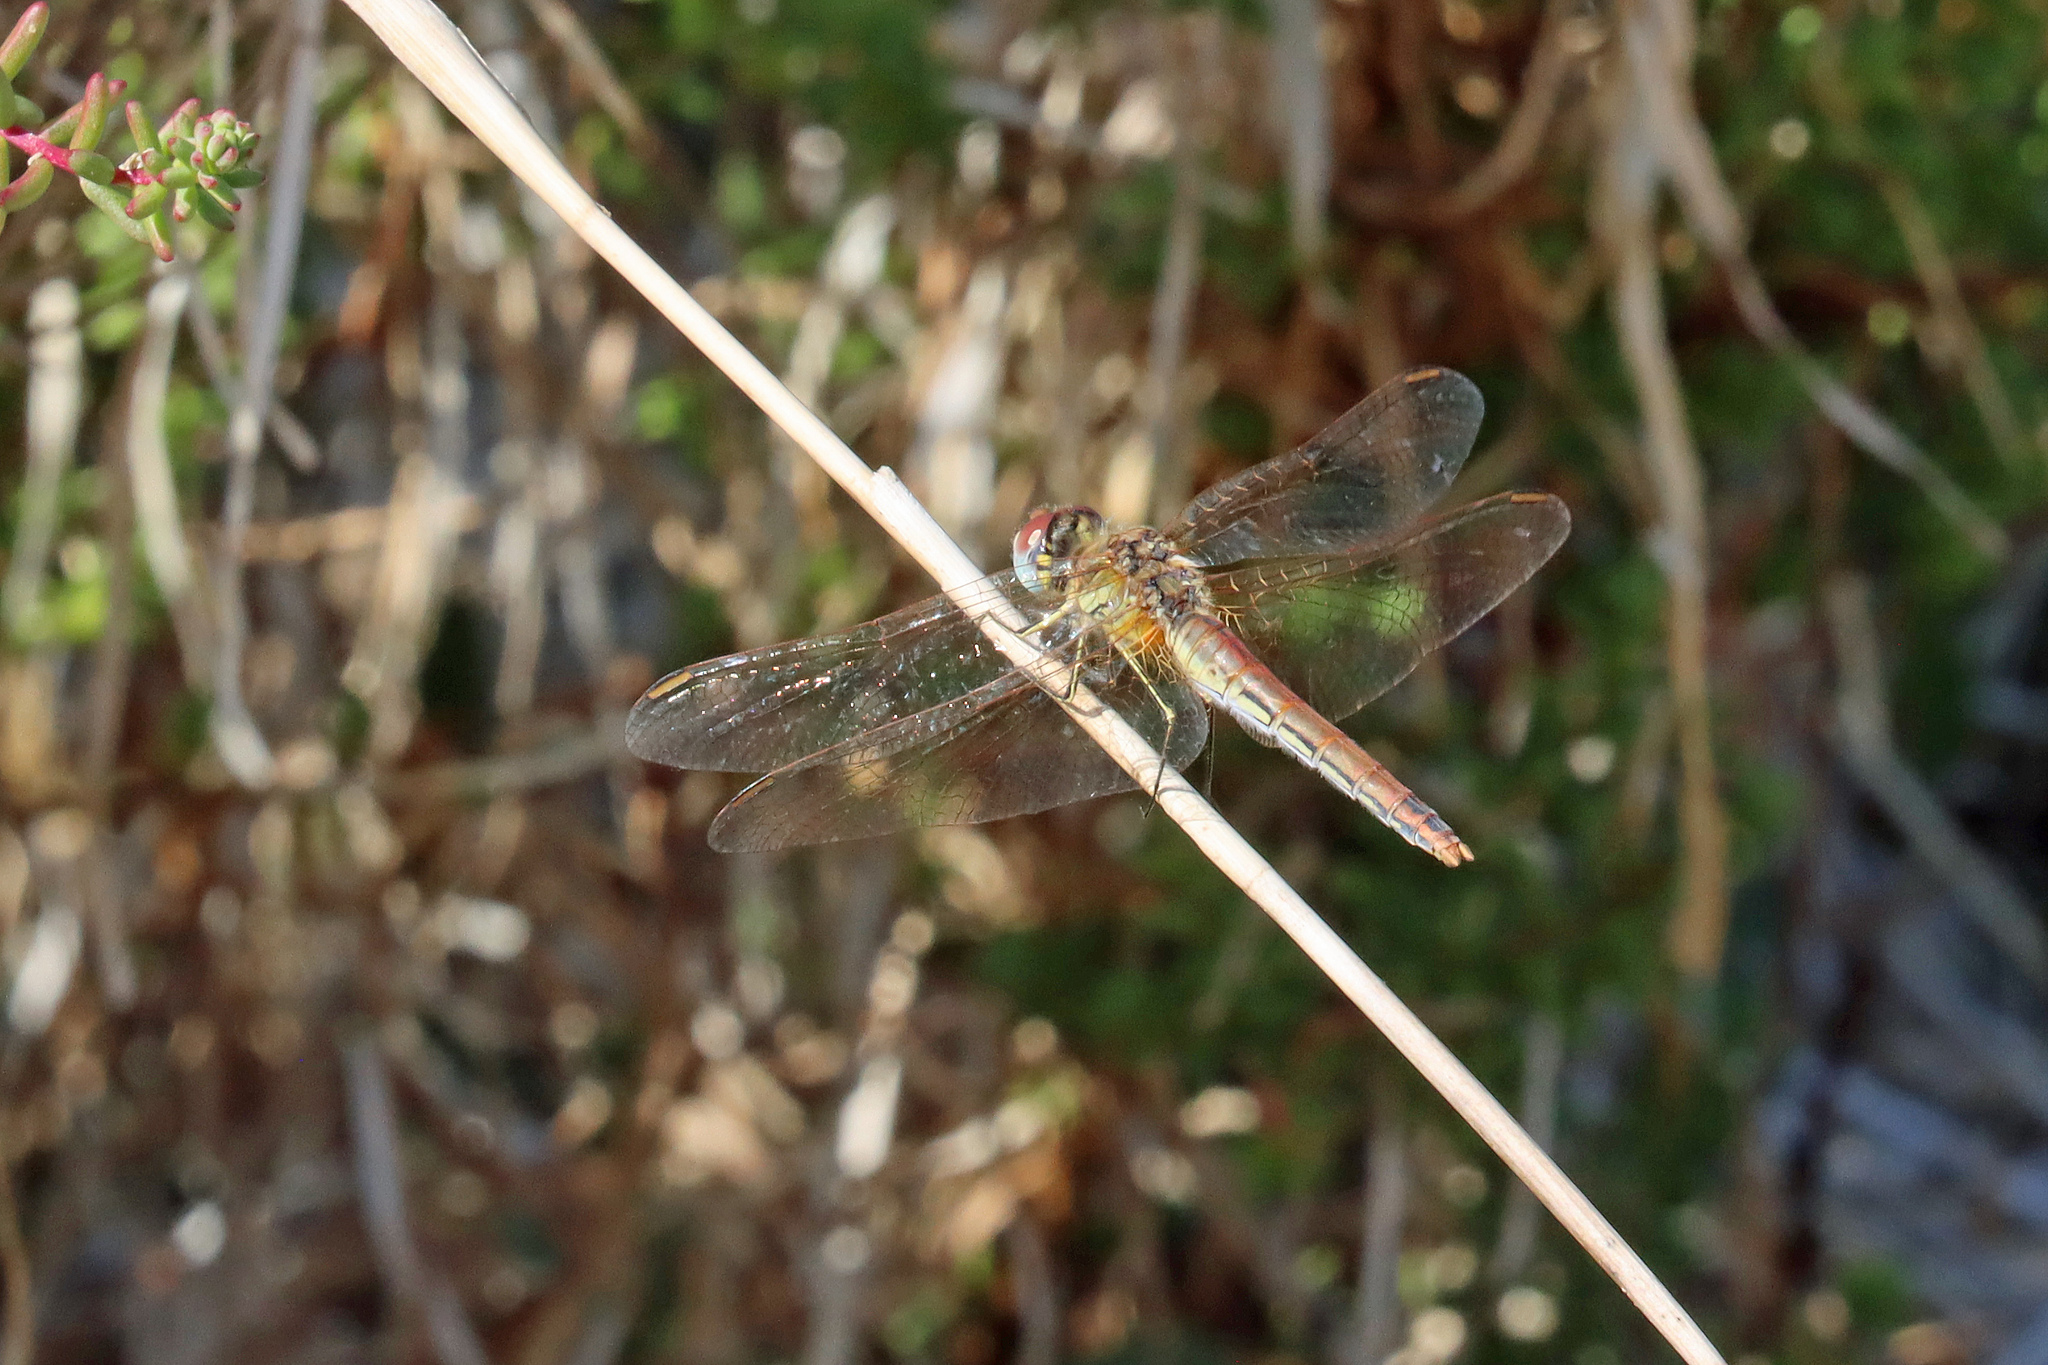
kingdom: Animalia
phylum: Arthropoda
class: Insecta
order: Odonata
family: Libellulidae
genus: Sympetrum
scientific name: Sympetrum fonscolombii
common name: Red-veined darter
